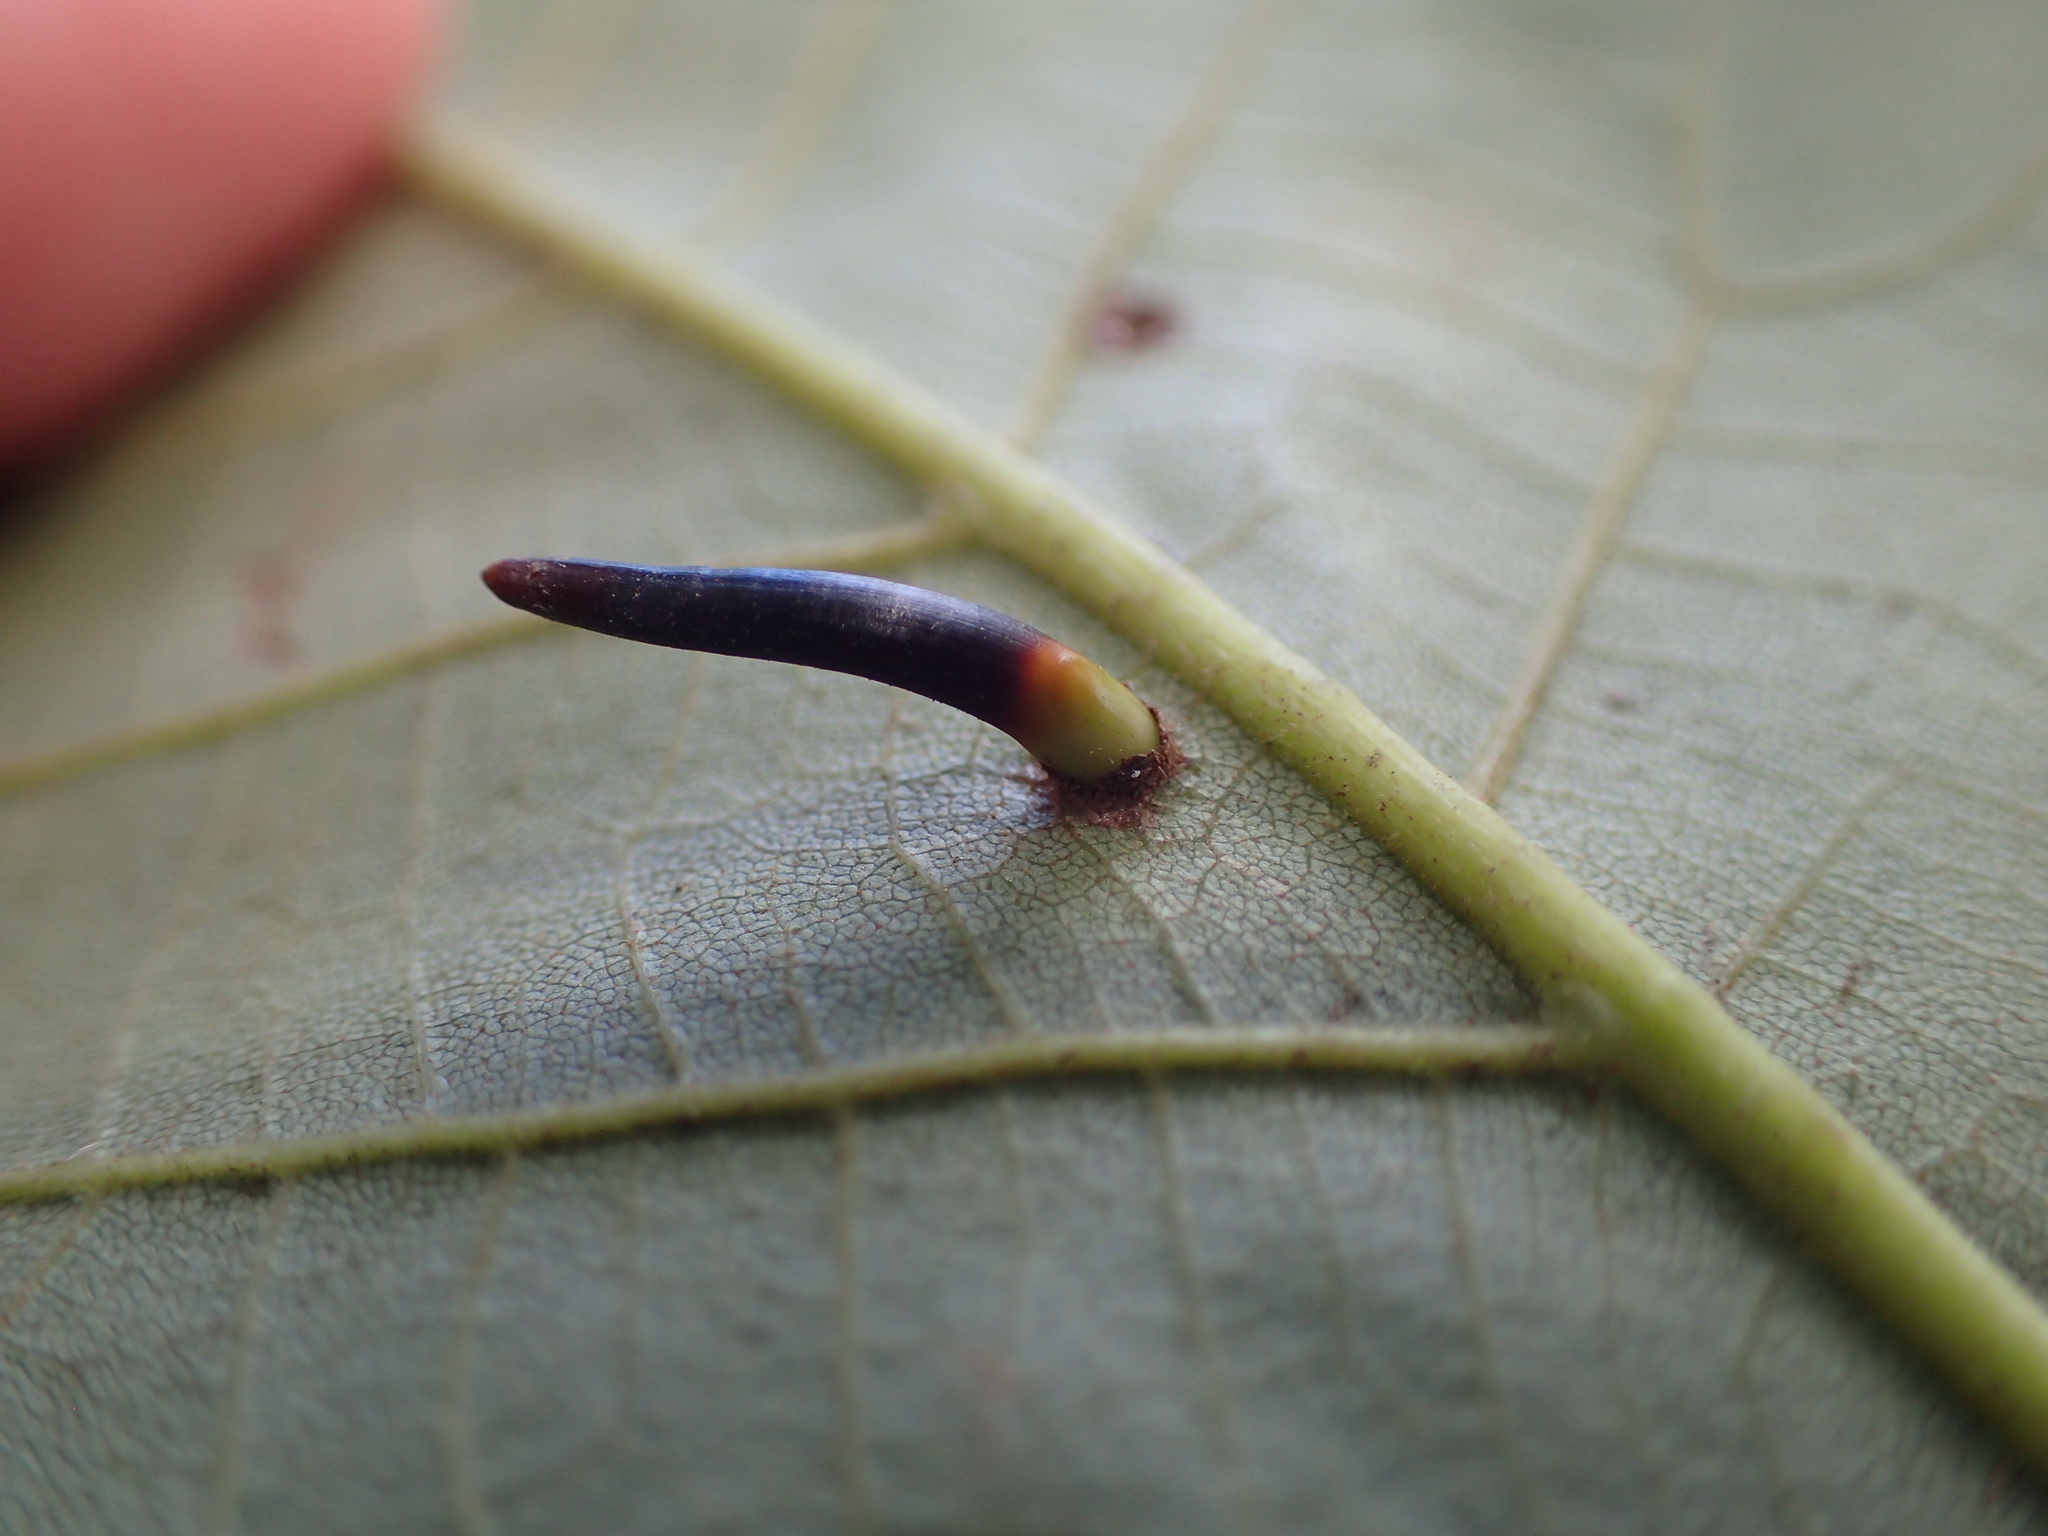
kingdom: Animalia
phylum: Arthropoda
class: Insecta
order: Diptera
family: Cecidomyiidae
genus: Caryomyia
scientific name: Caryomyia subulata
